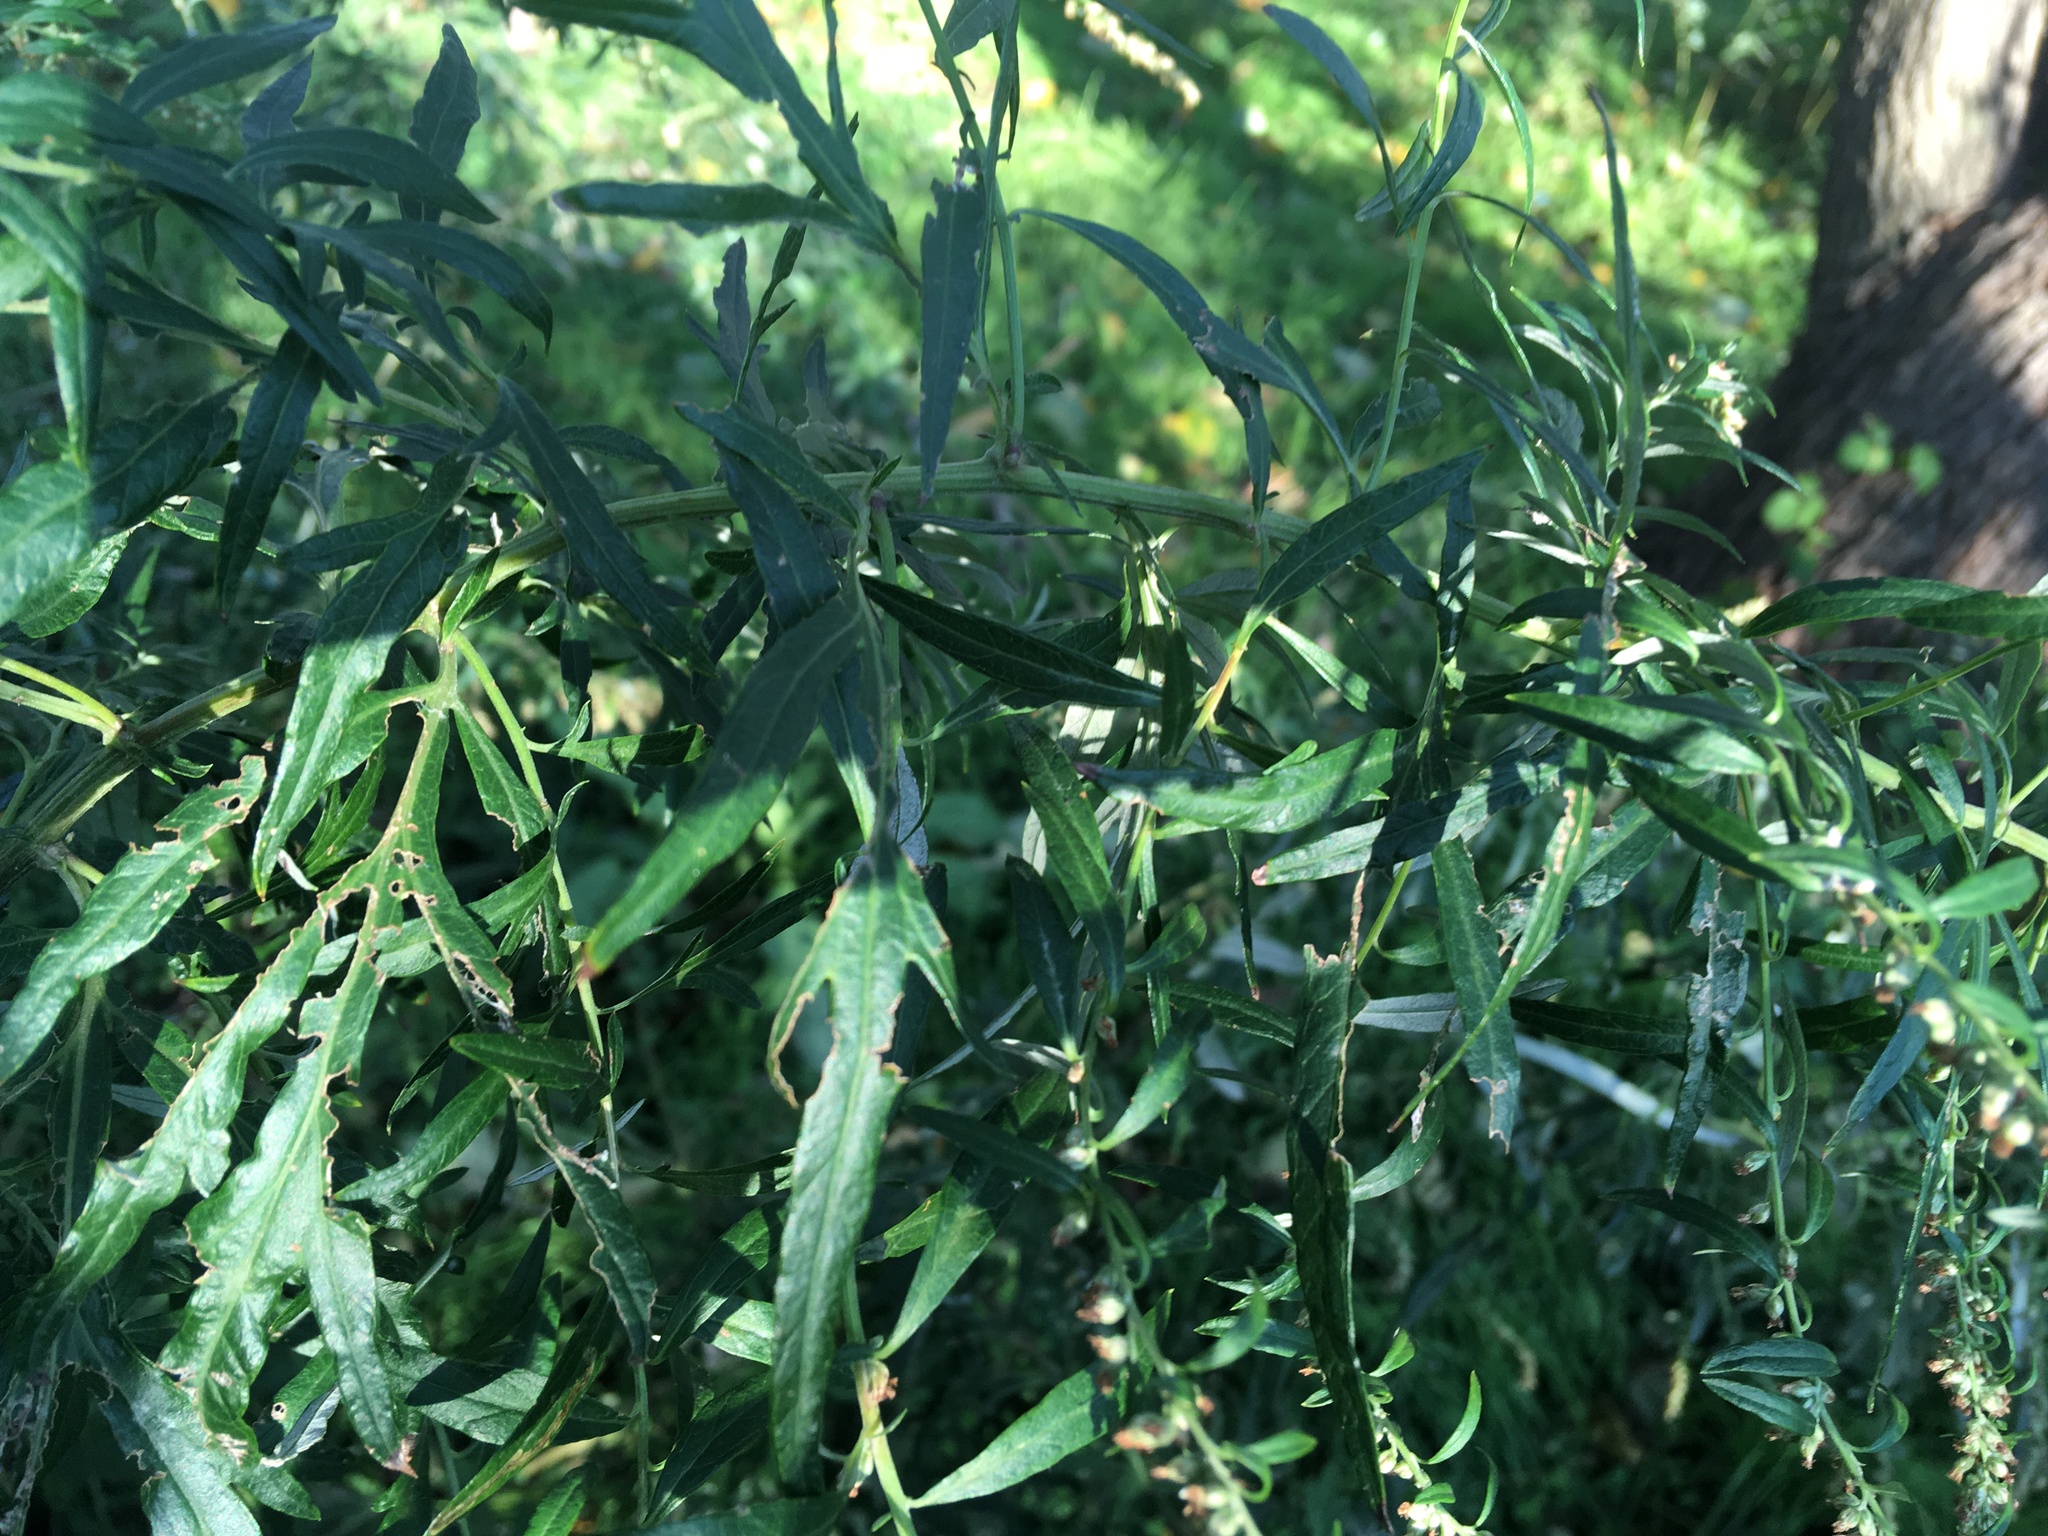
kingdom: Plantae
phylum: Tracheophyta
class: Magnoliopsida
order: Asterales
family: Asteraceae
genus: Artemisia
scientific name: Artemisia vulgaris
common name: Mugwort
